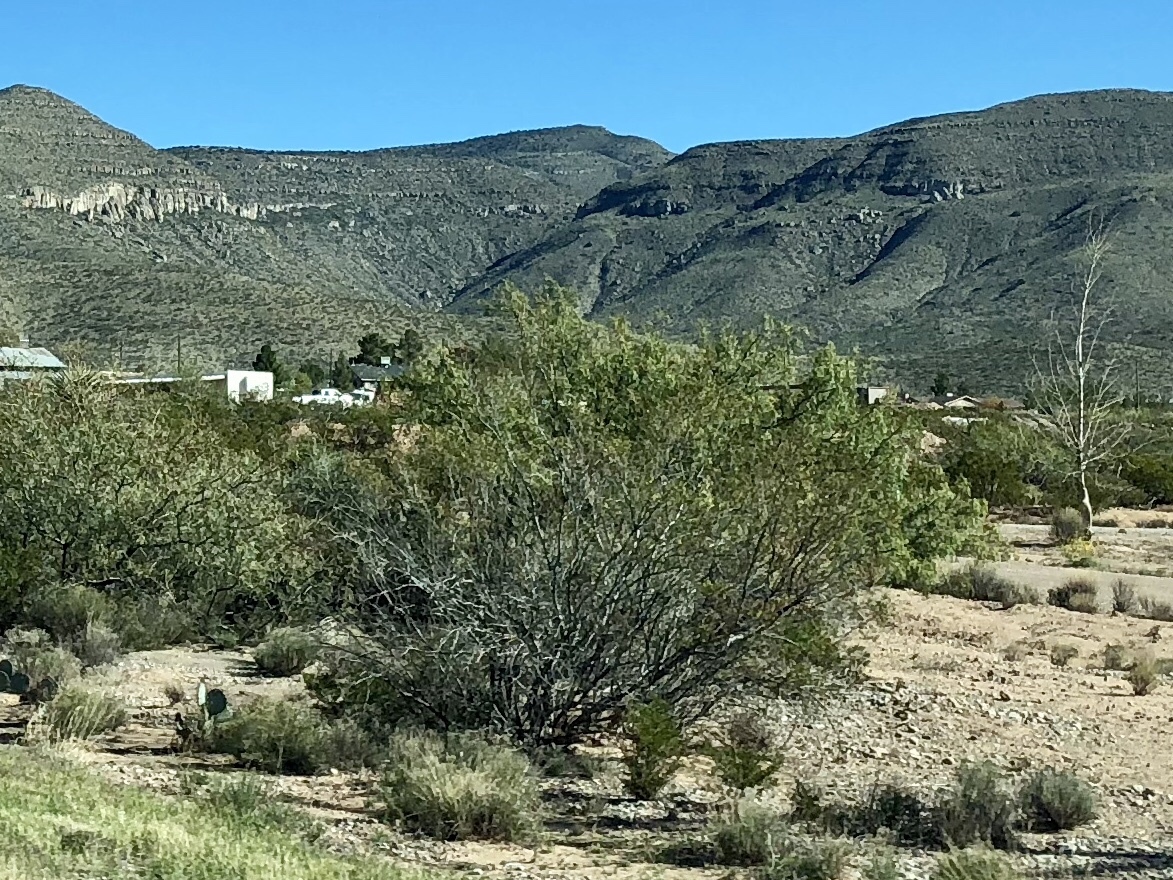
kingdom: Plantae
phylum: Tracheophyta
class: Magnoliopsida
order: Zygophyllales
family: Zygophyllaceae
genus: Larrea
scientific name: Larrea tridentata
